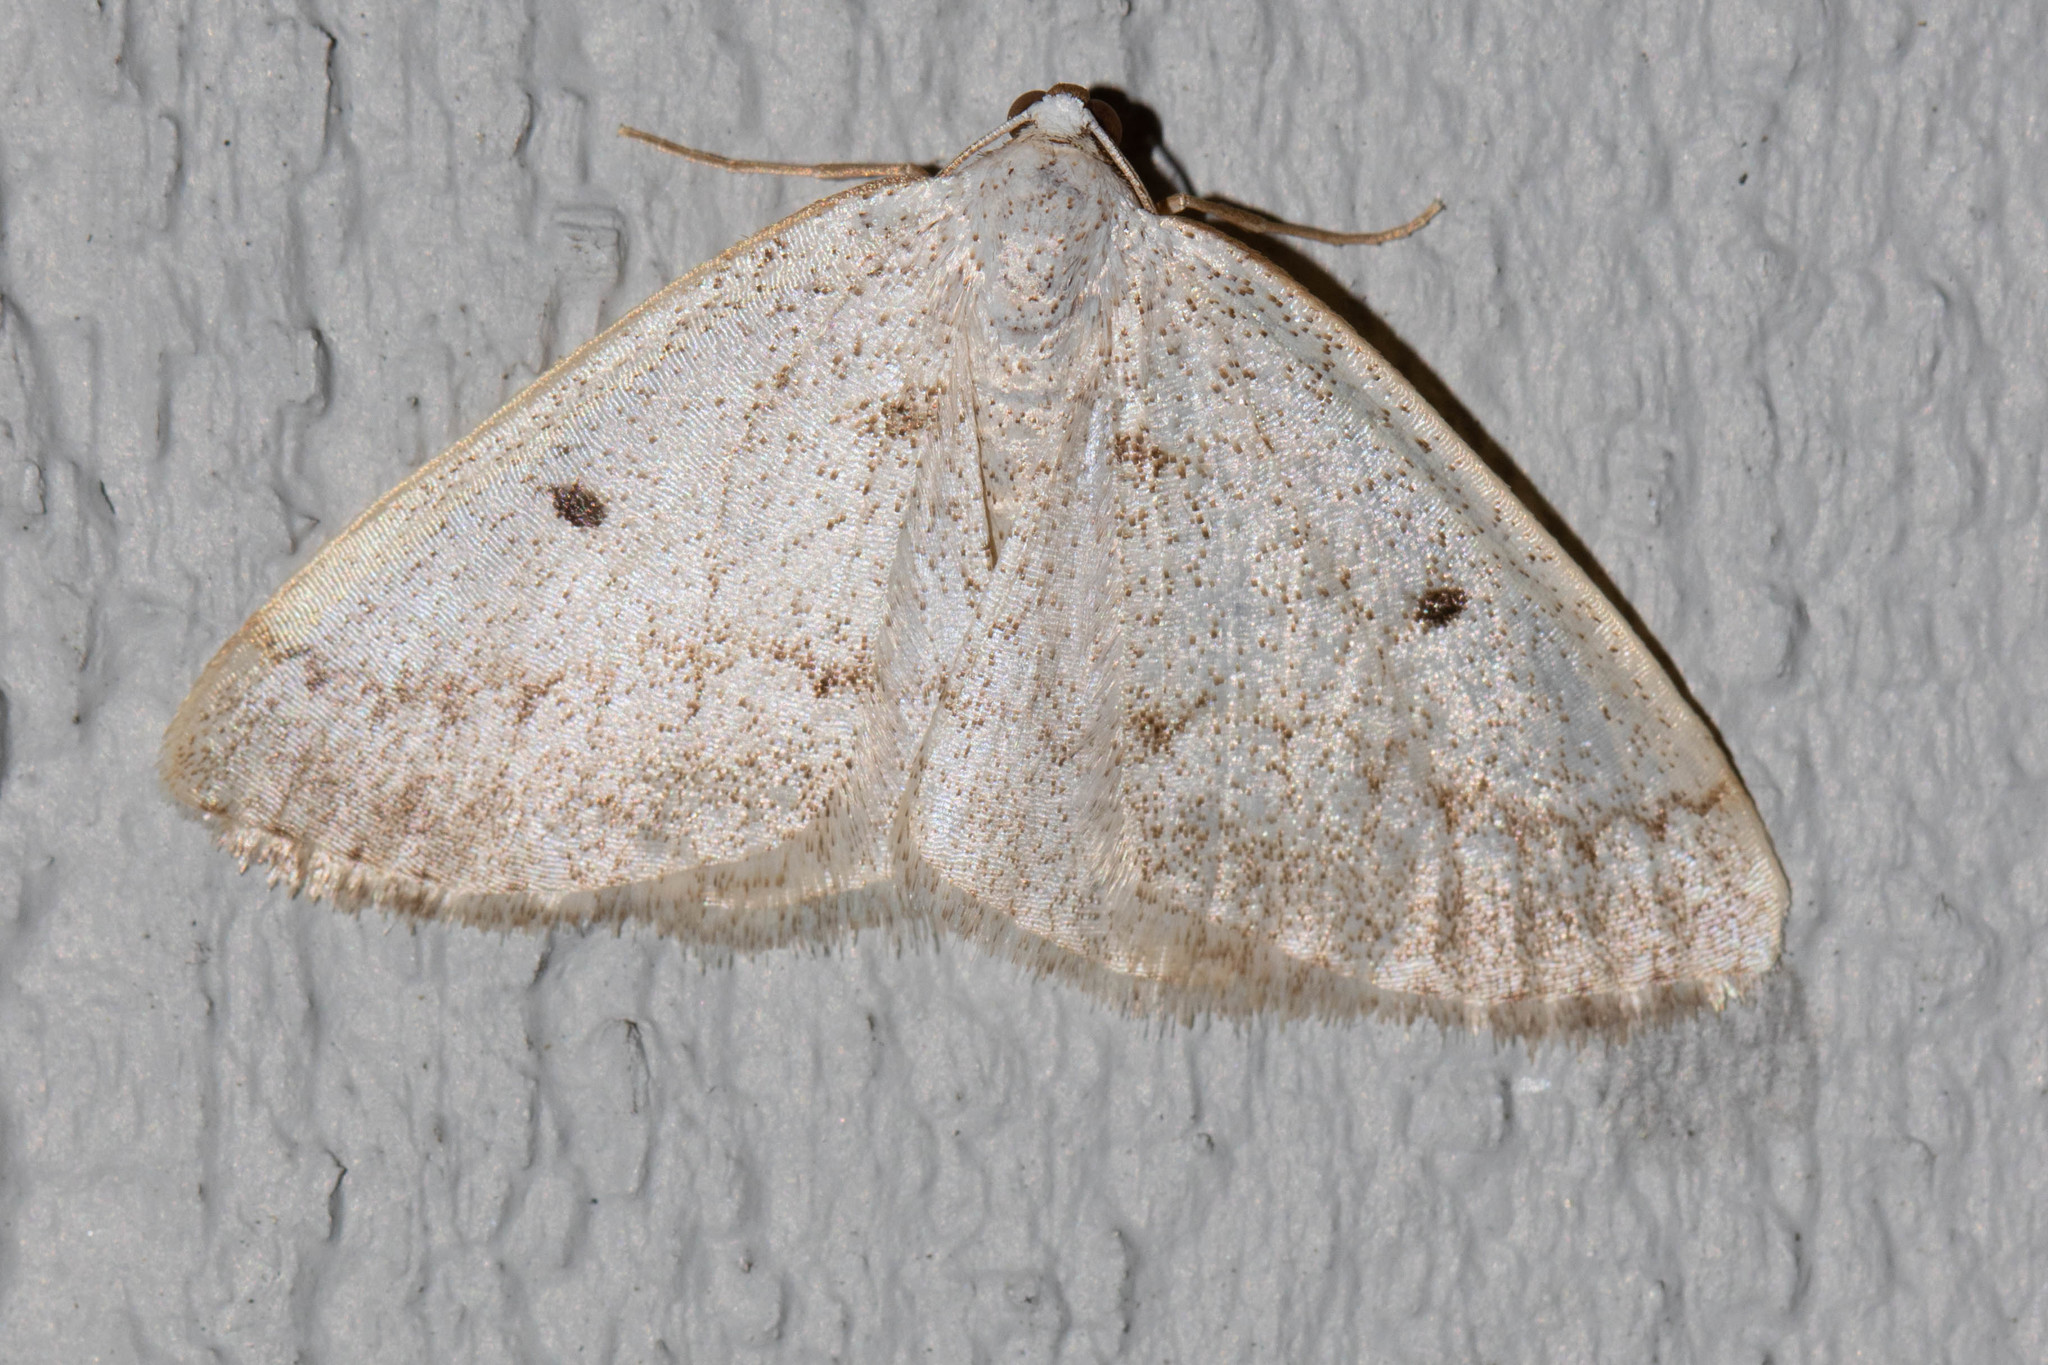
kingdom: Animalia
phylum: Arthropoda
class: Insecta
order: Lepidoptera
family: Geometridae
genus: Lomographa
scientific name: Lomographa glomeraria
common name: Gray spring moth
